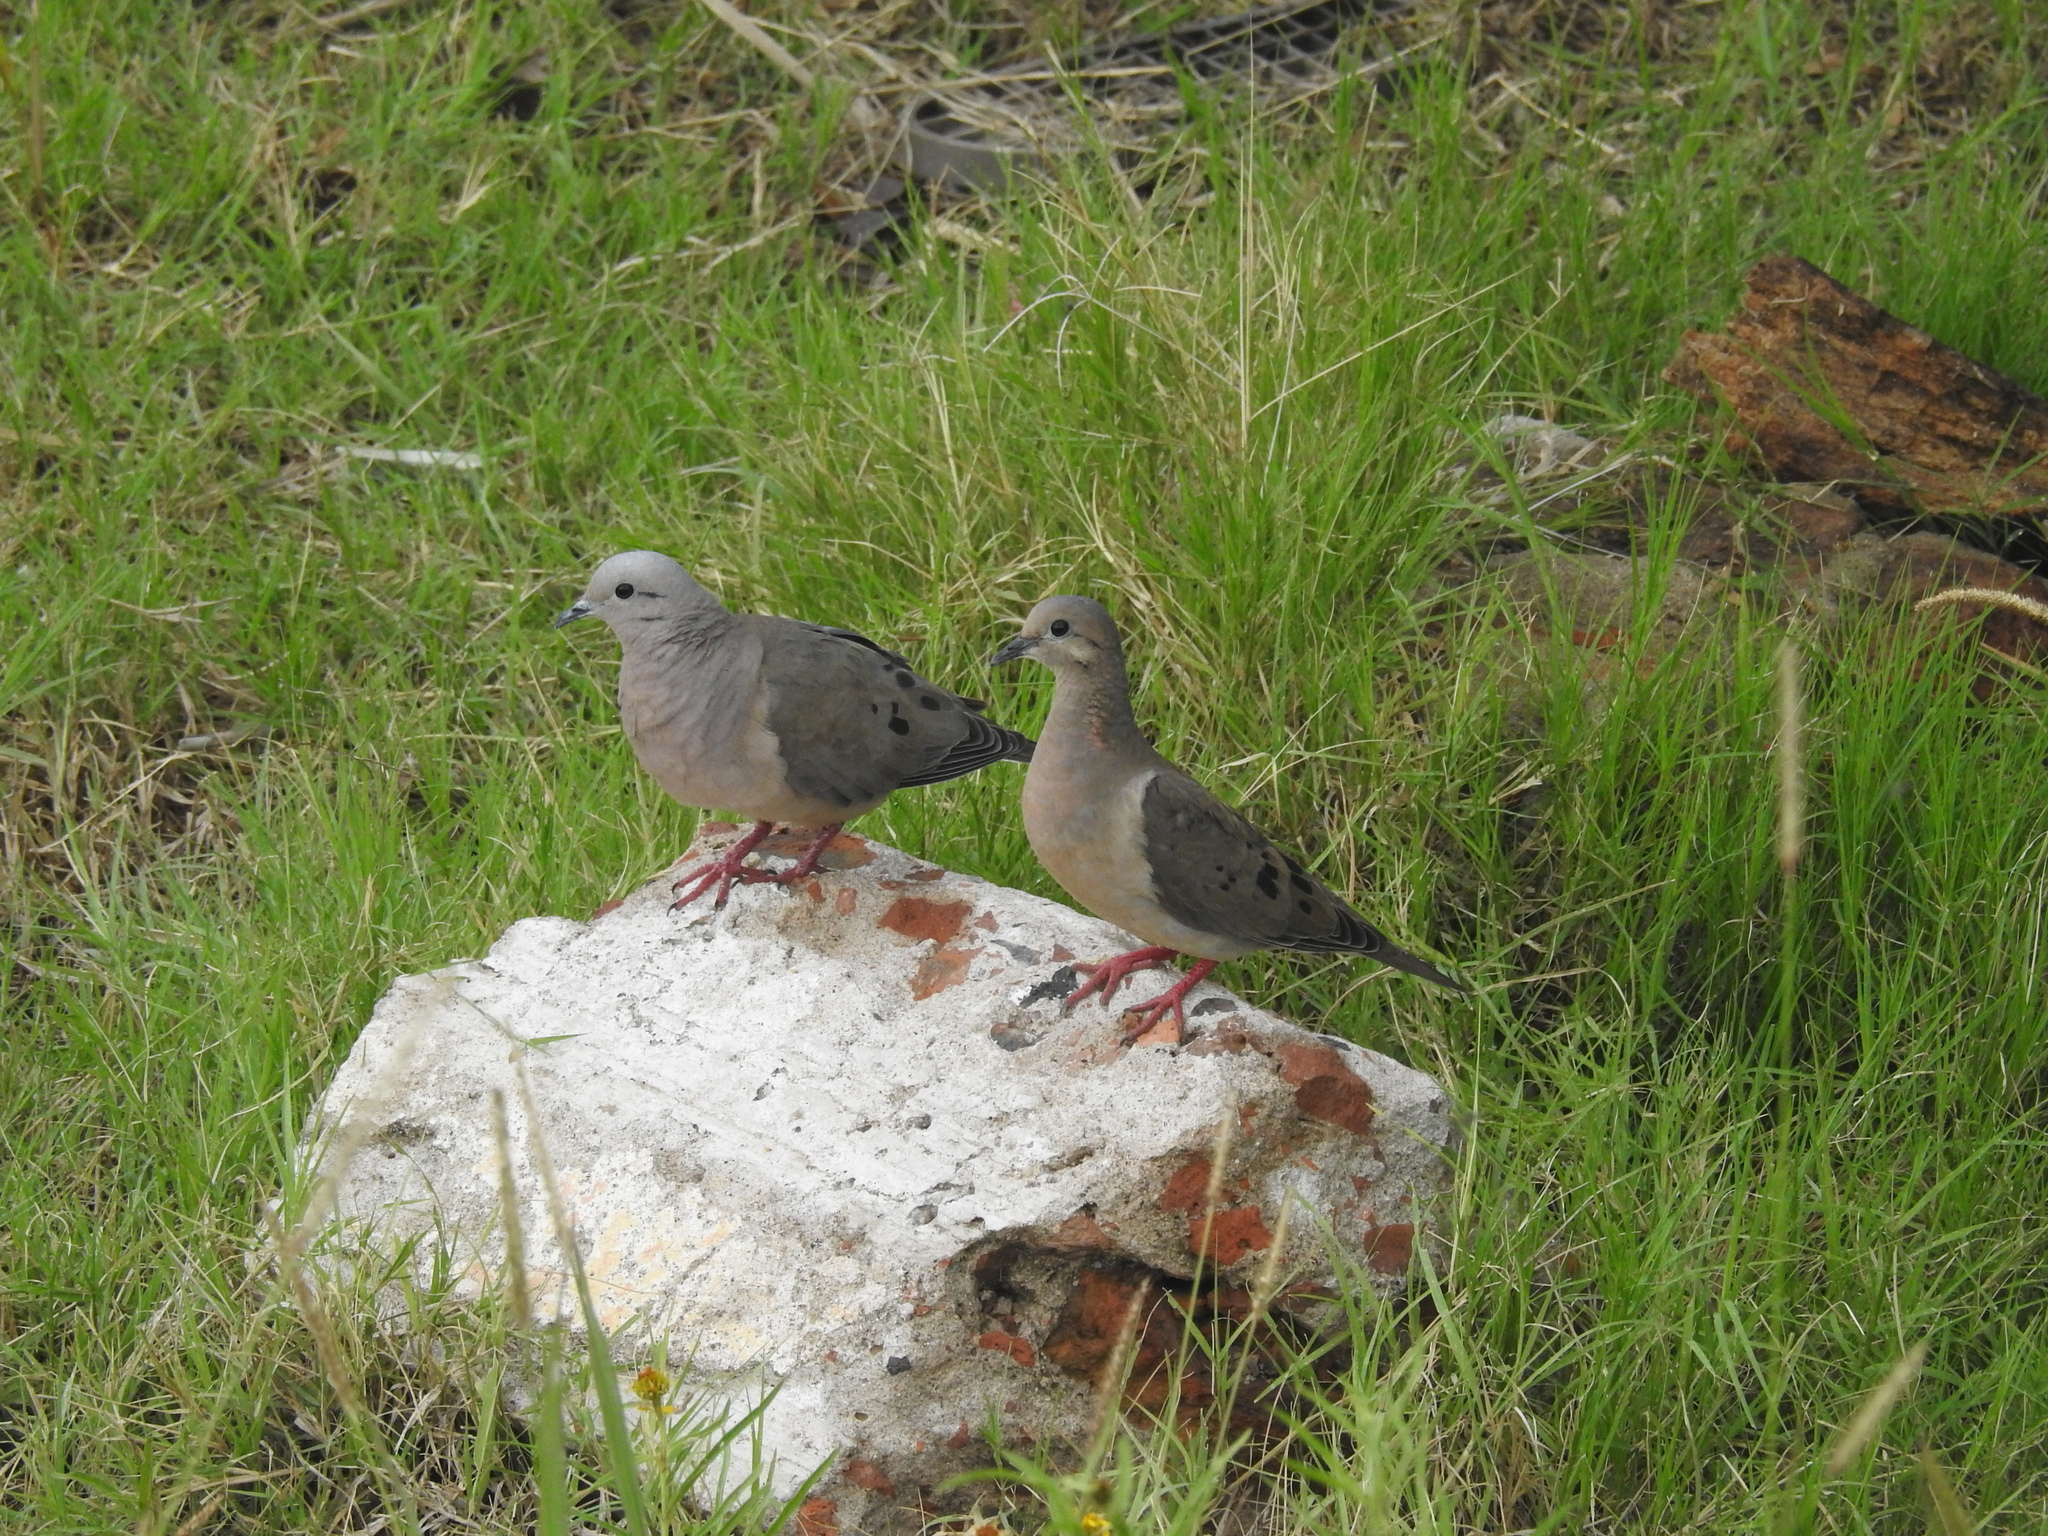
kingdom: Animalia
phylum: Chordata
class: Aves
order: Columbiformes
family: Columbidae
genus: Zenaida
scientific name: Zenaida auriculata
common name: Eared dove
